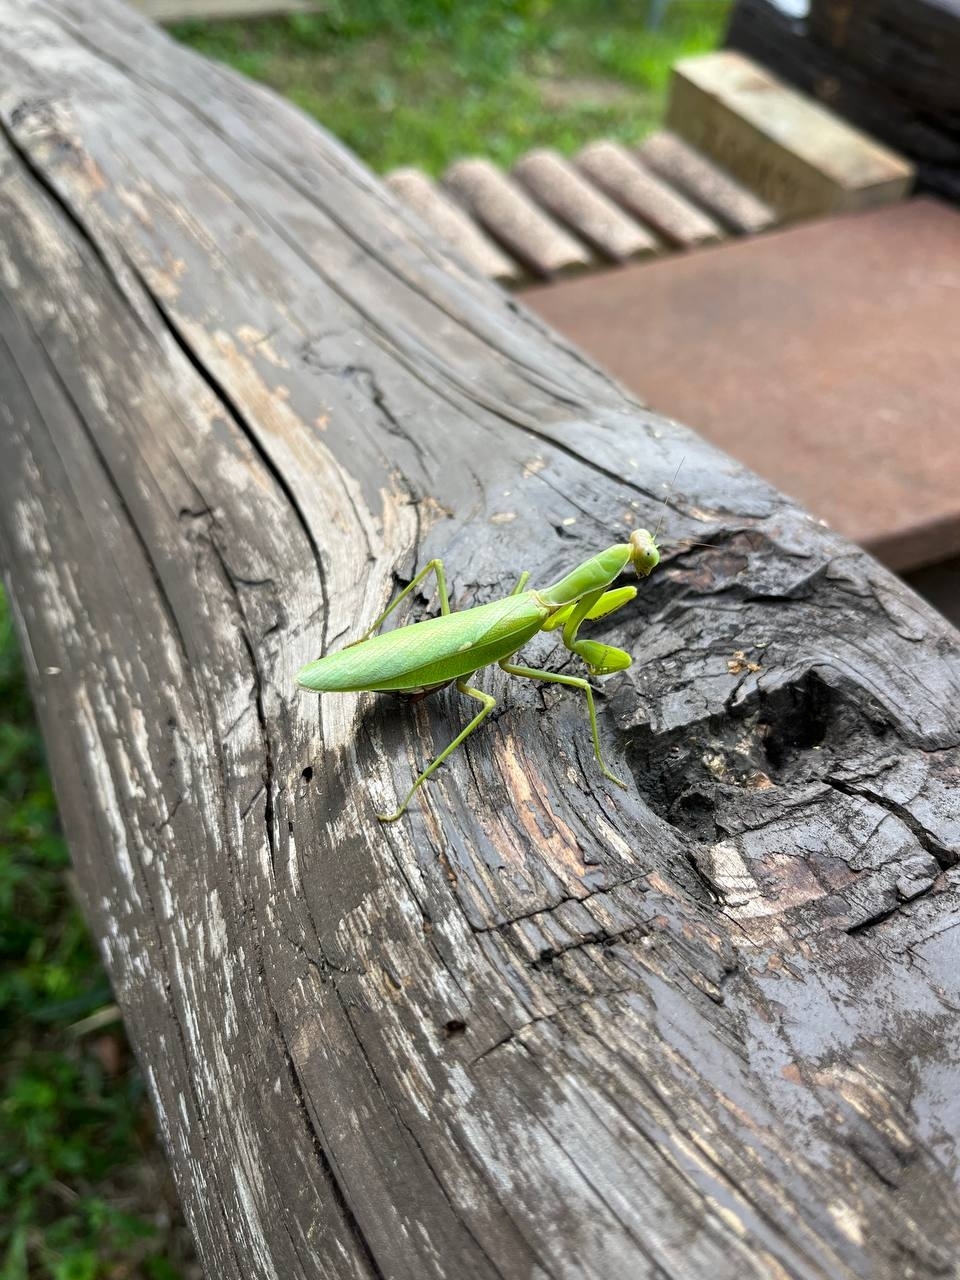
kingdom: Animalia
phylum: Arthropoda
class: Insecta
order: Mantodea
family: Mantidae
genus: Hierodula
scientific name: Hierodula patellifera
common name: Asian mantis
